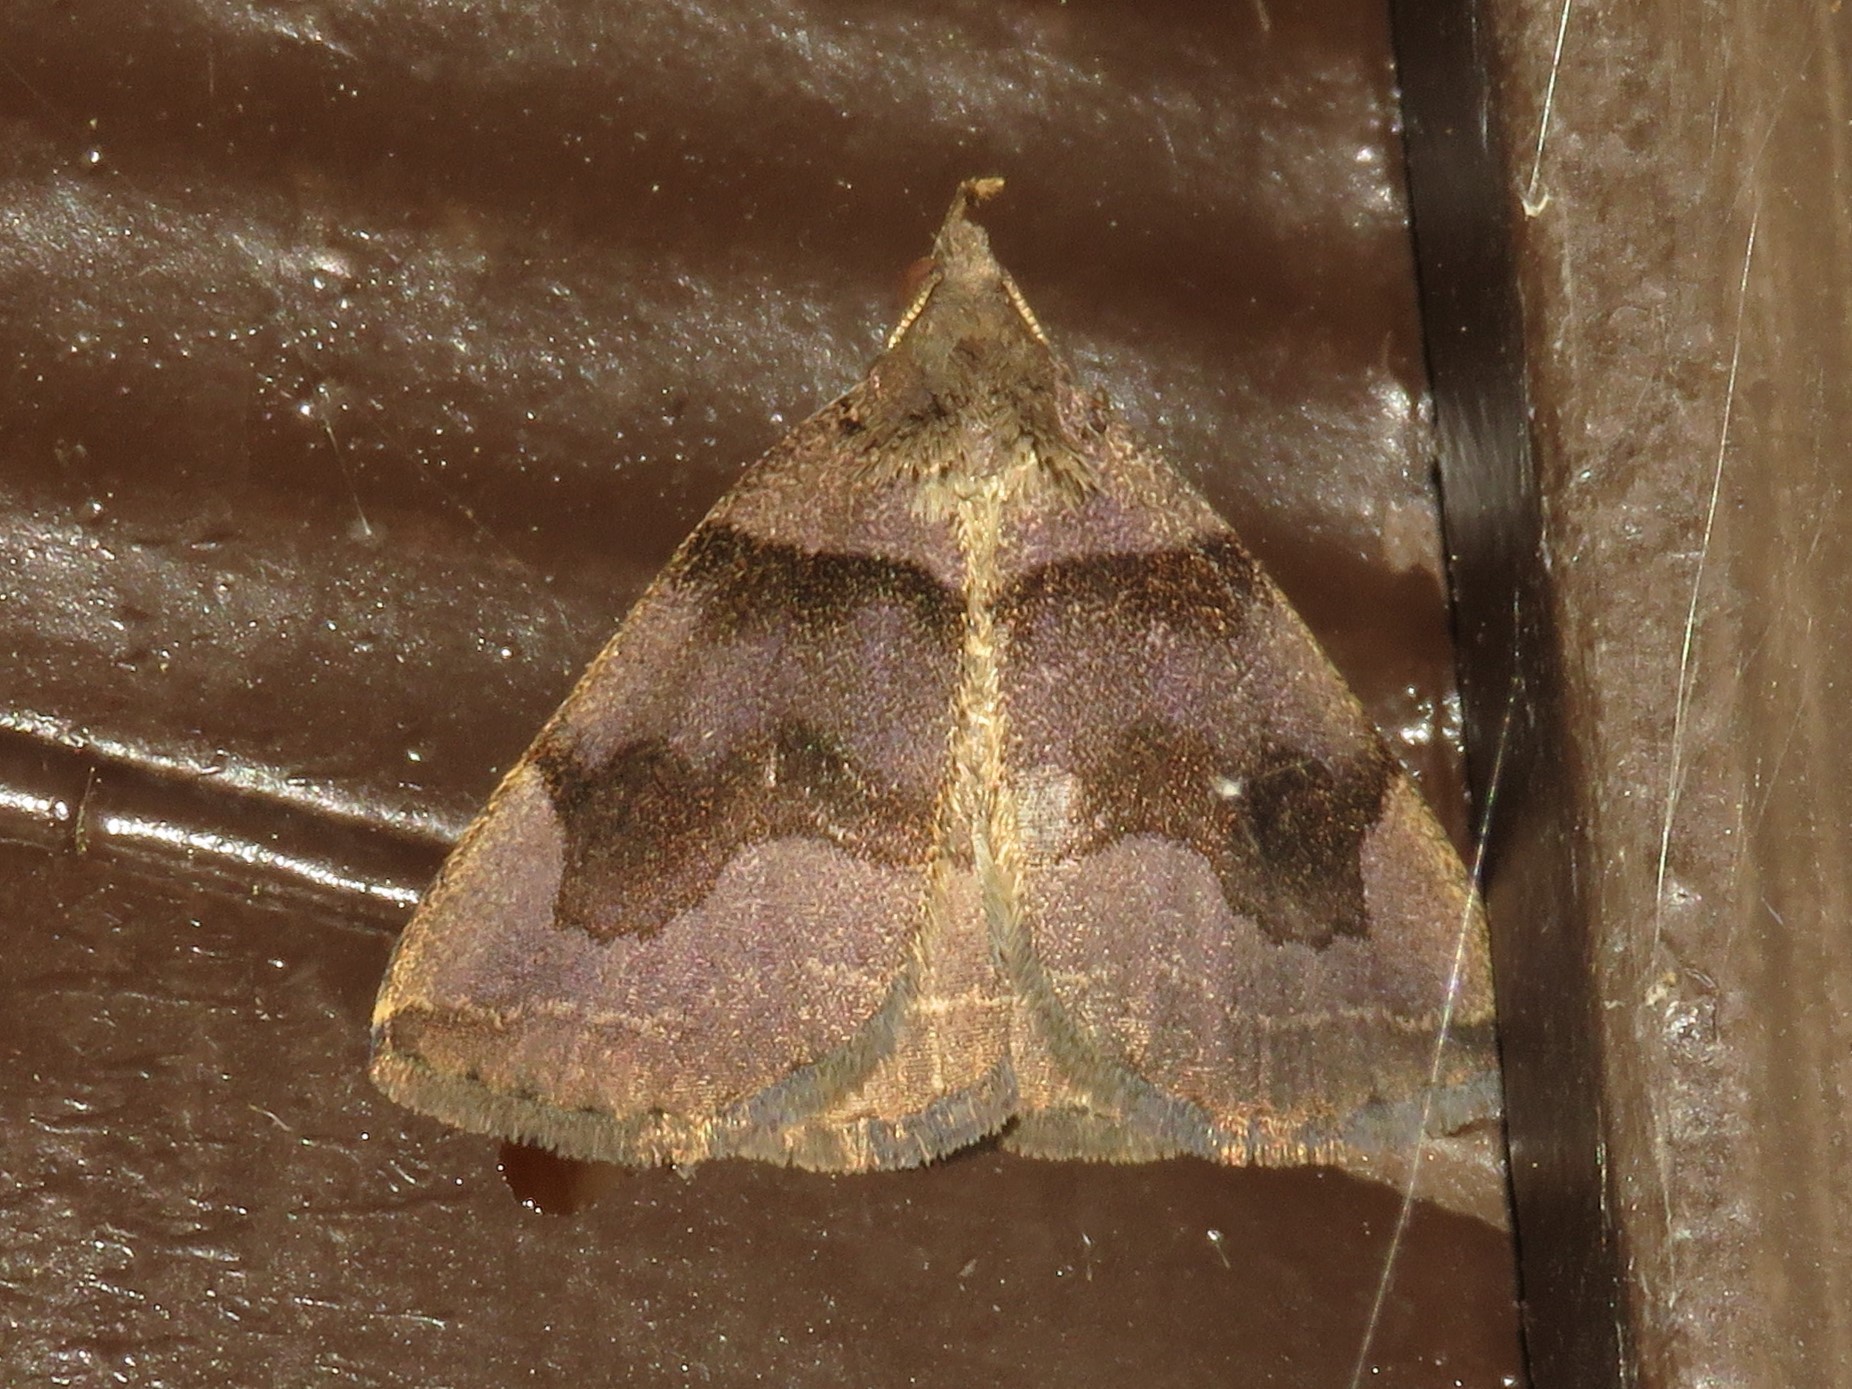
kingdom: Animalia
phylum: Arthropoda
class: Insecta
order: Lepidoptera
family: Erebidae
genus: Zanclognatha
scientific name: Zanclognatha laevigata
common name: Variable fan-foot
